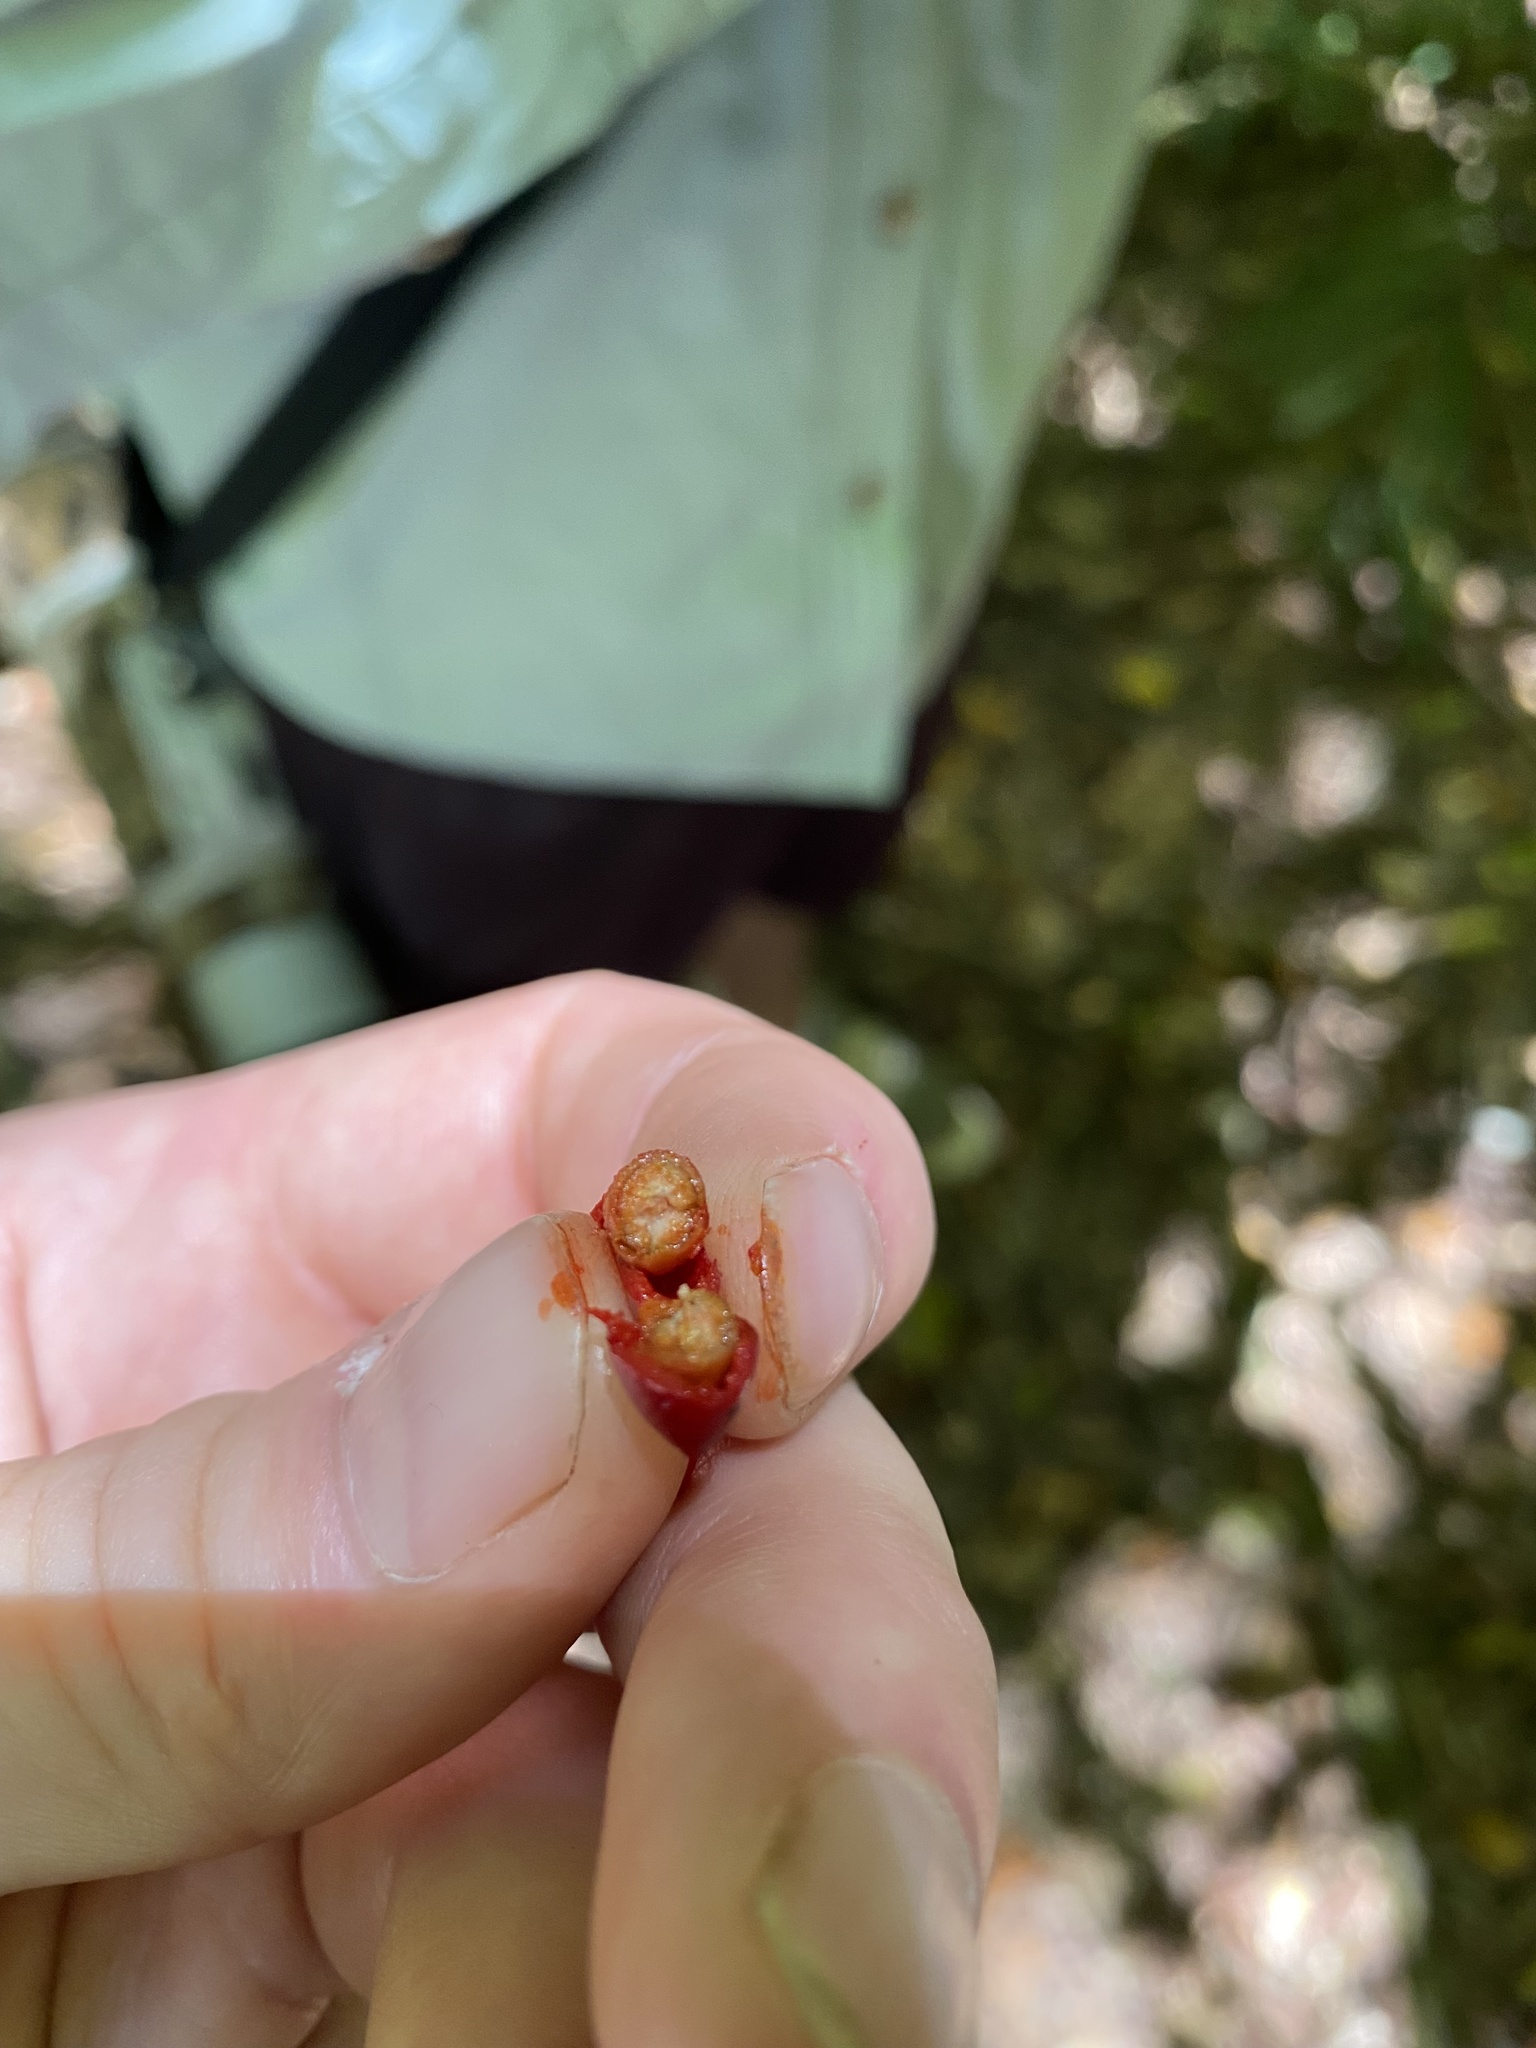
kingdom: Plantae
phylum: Tracheophyta
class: Magnoliopsida
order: Piperales
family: Piperaceae
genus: Piper
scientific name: Piper lanatum
